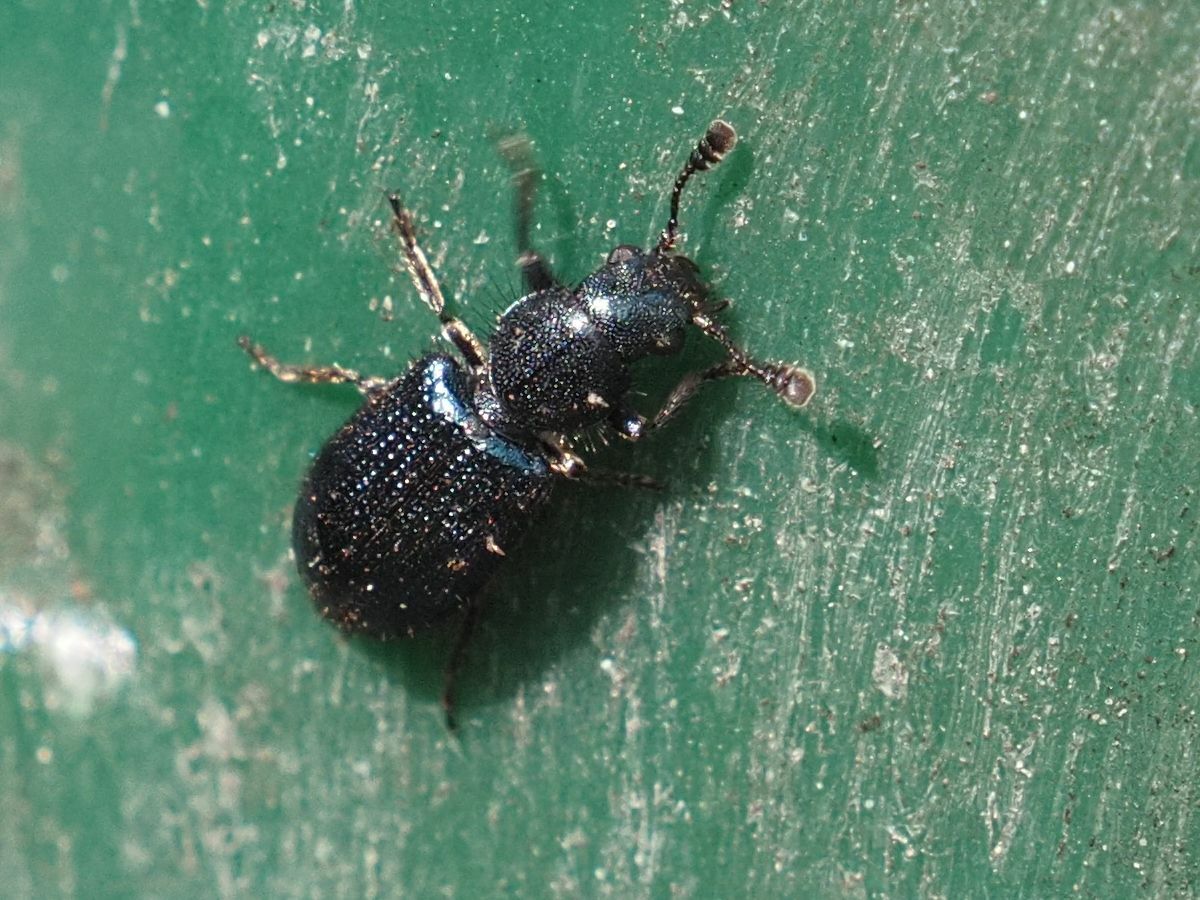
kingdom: Animalia
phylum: Arthropoda
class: Insecta
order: Coleoptera
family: Cleridae
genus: Necrobia
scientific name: Necrobia violacea
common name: Violet checkered beetle
